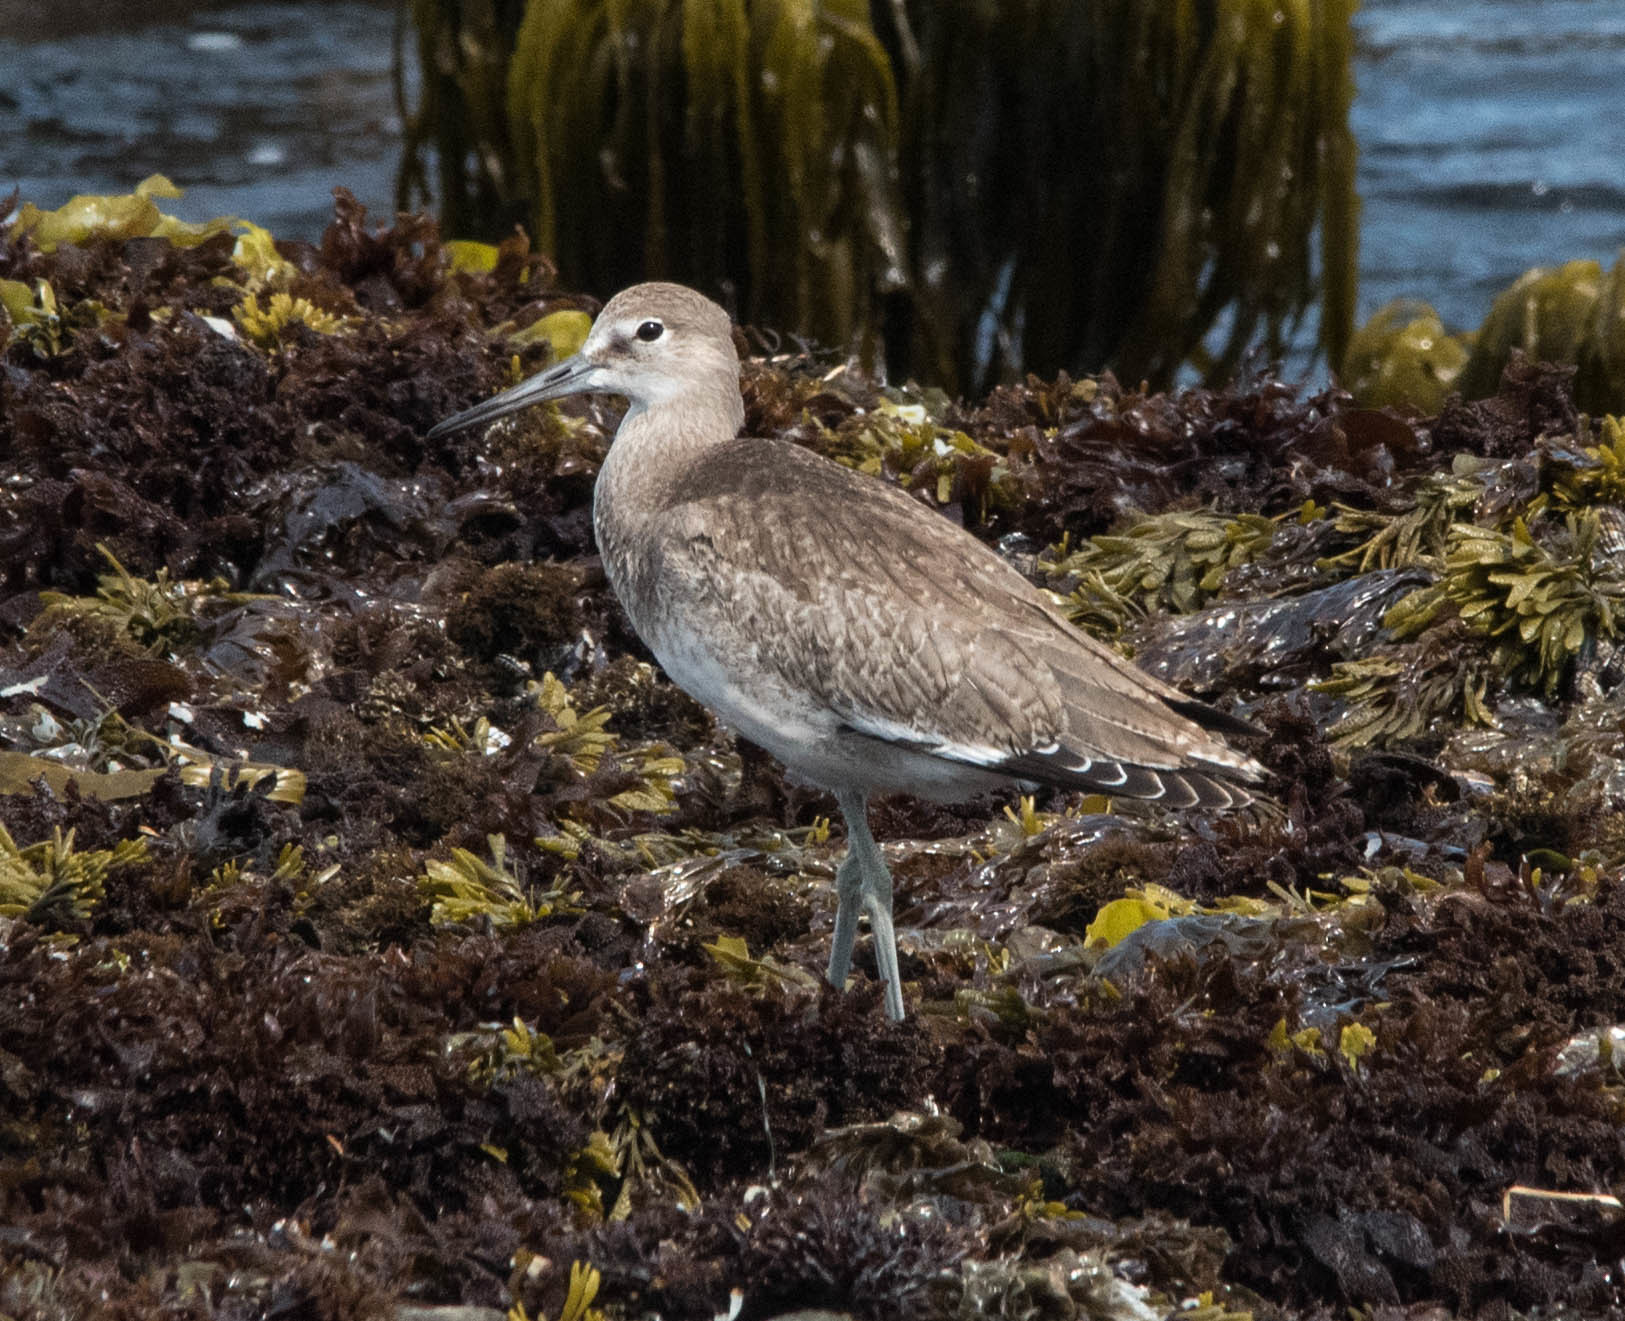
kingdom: Animalia
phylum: Chordata
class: Aves
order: Charadriiformes
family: Scolopacidae
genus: Tringa
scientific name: Tringa semipalmata
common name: Willet
